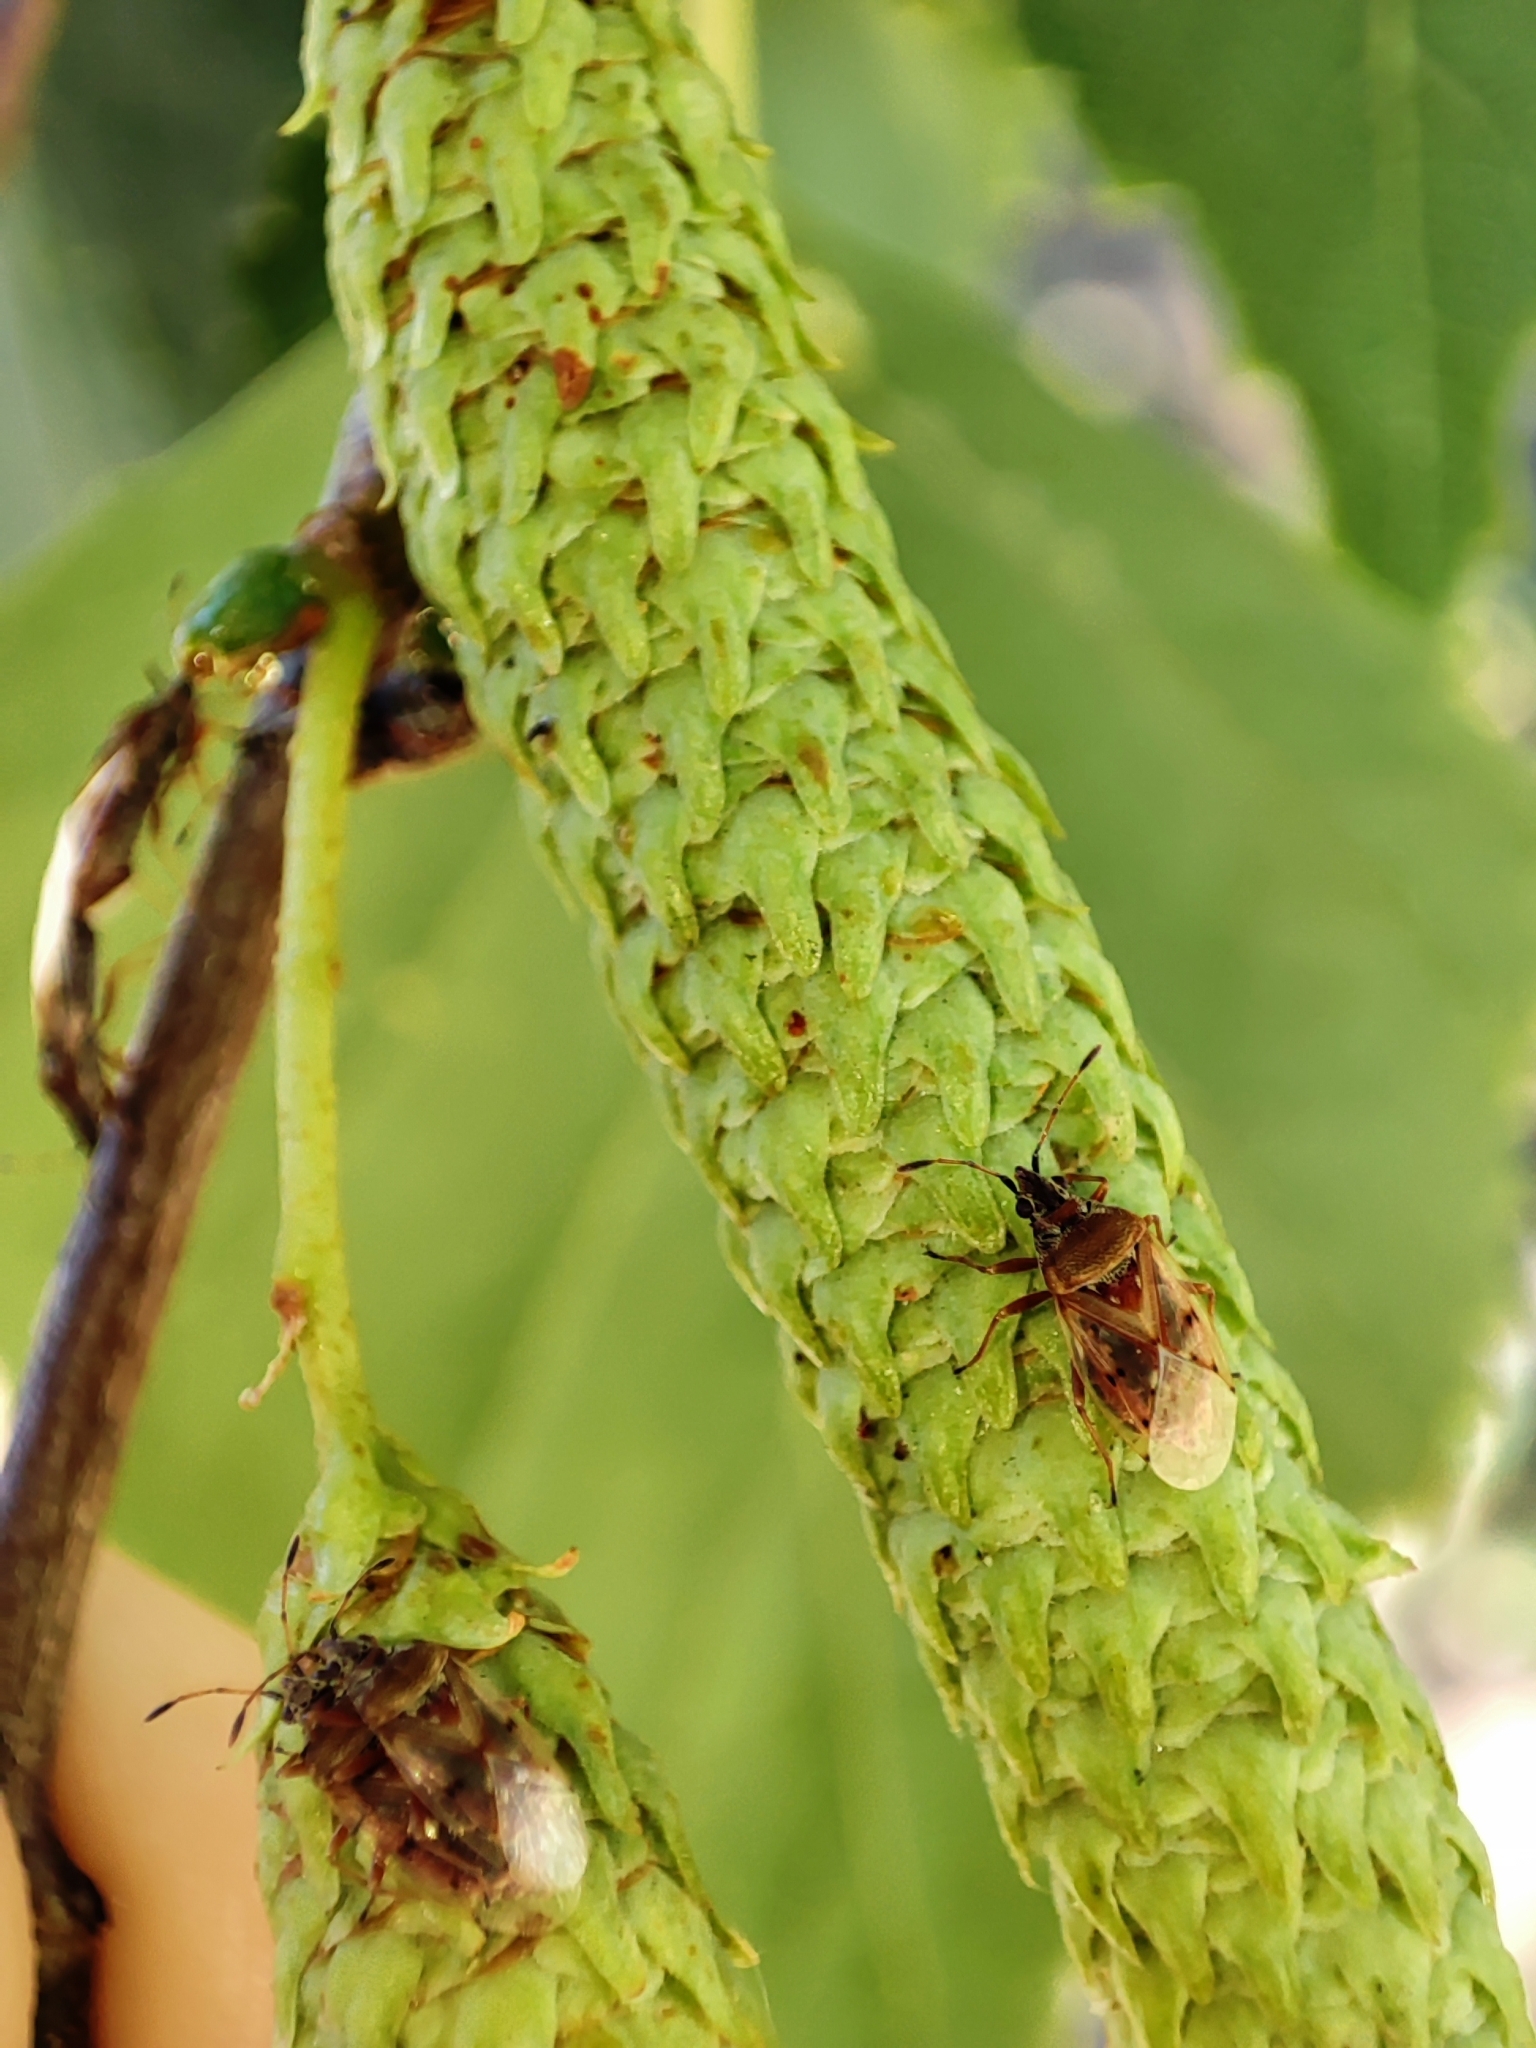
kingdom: Animalia
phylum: Arthropoda
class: Insecta
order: Hemiptera
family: Lygaeidae
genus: Kleidocerys
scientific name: Kleidocerys resedae
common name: Birch catkin bug
